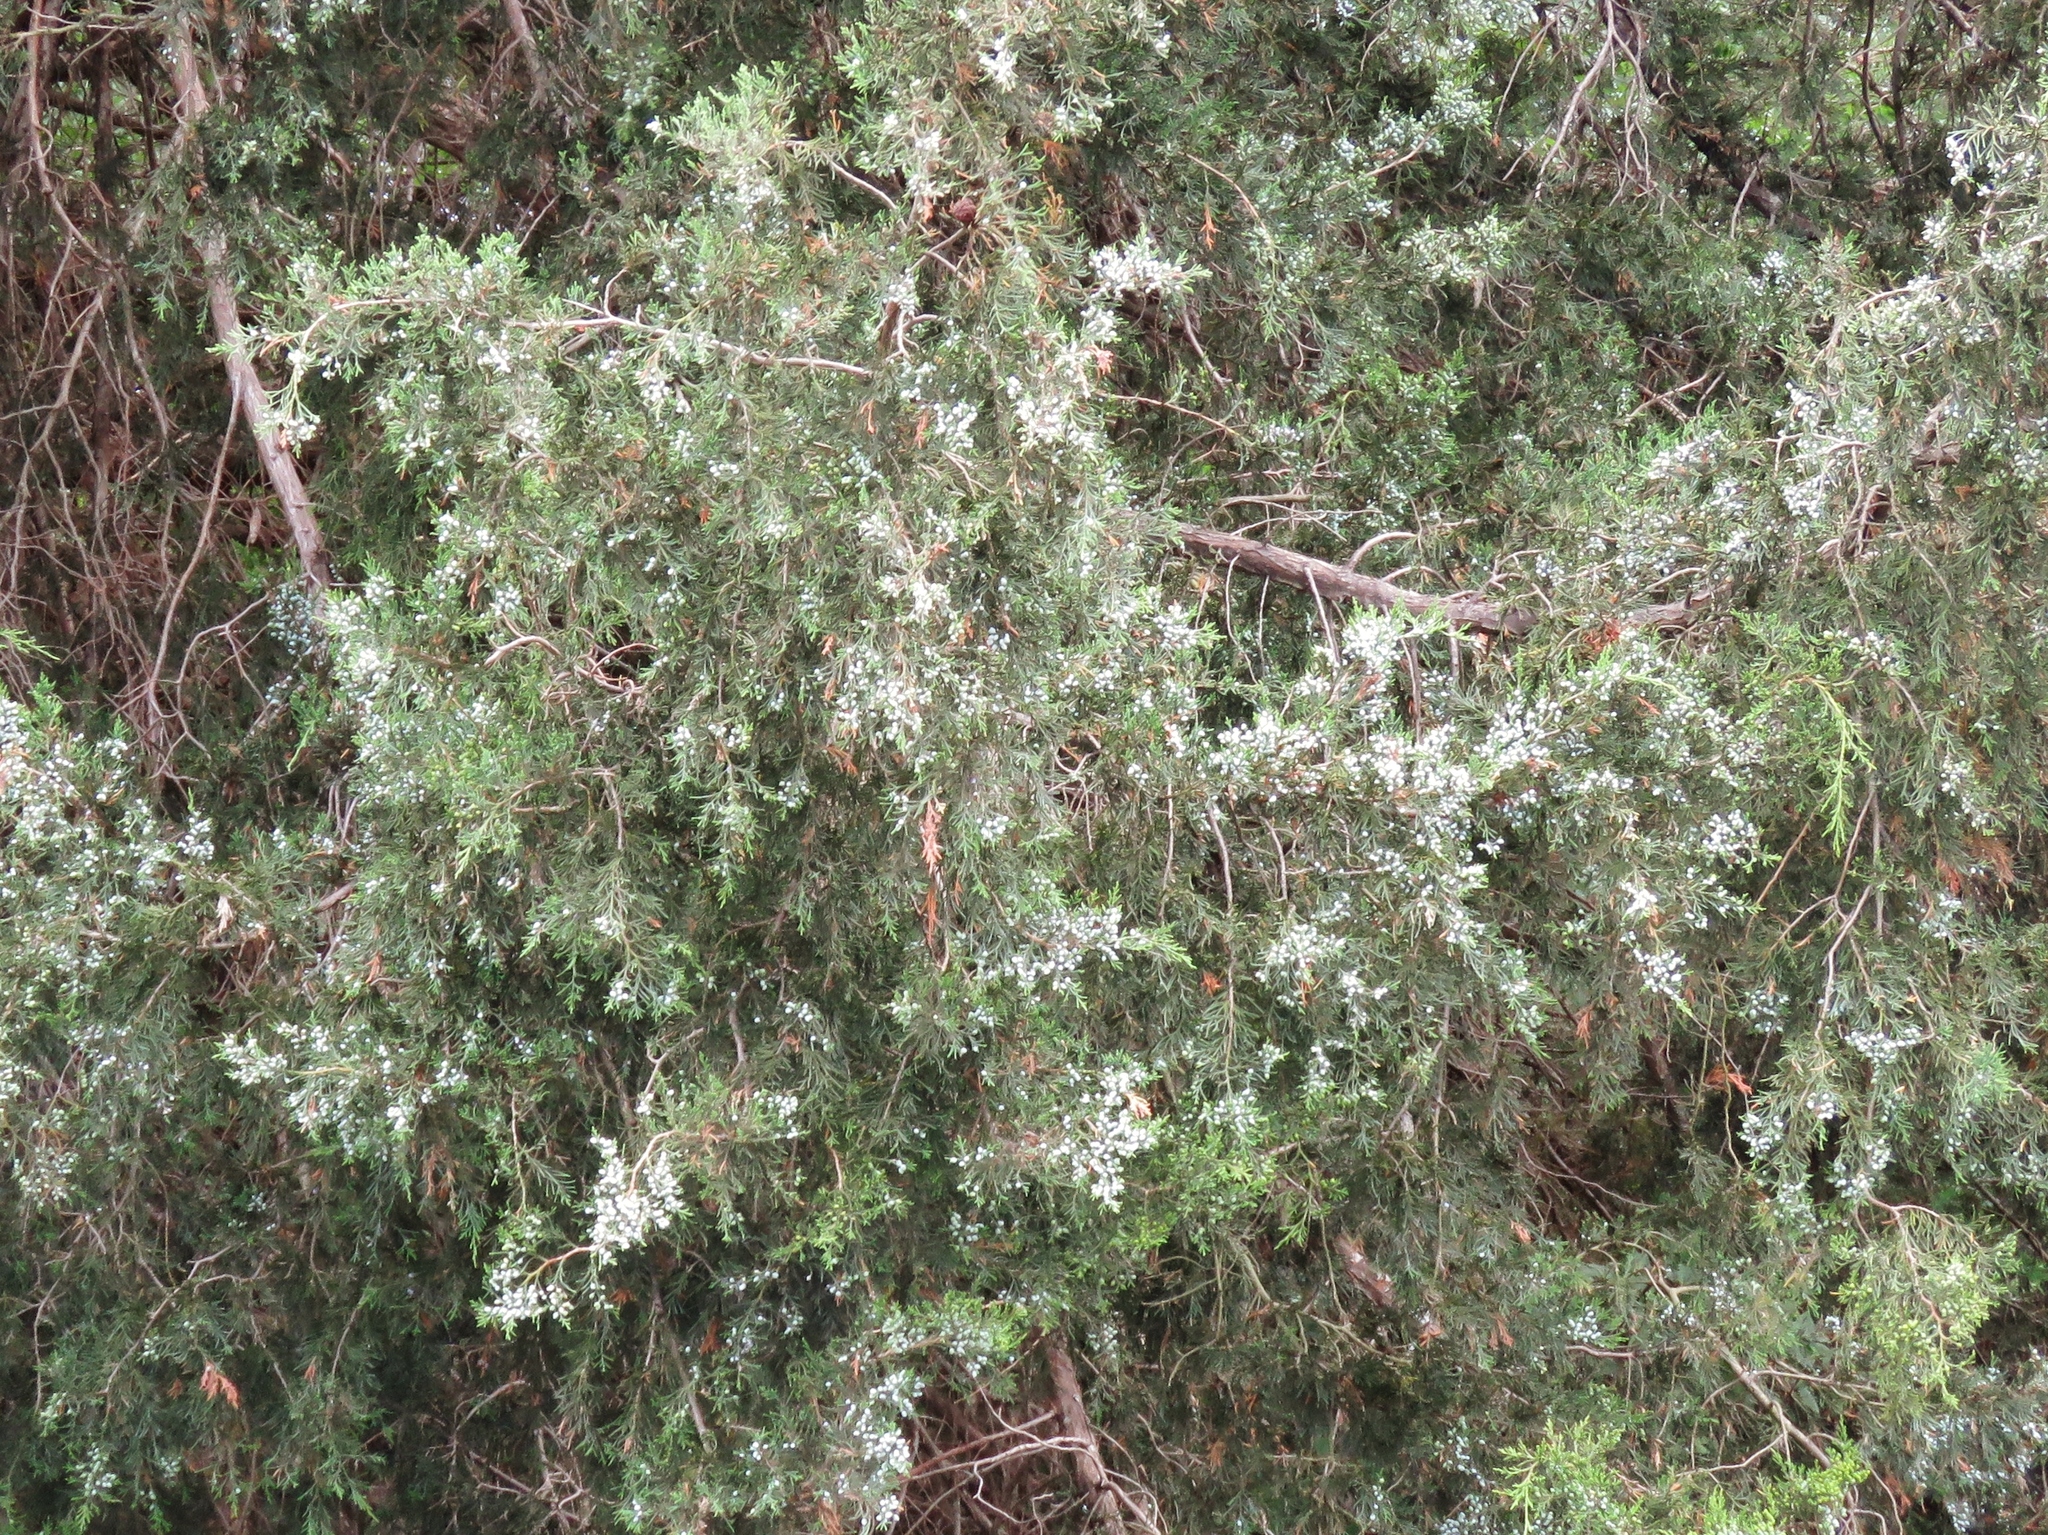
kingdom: Plantae
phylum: Tracheophyta
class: Pinopsida
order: Pinales
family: Cupressaceae
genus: Juniperus
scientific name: Juniperus virginiana
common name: Red juniper
